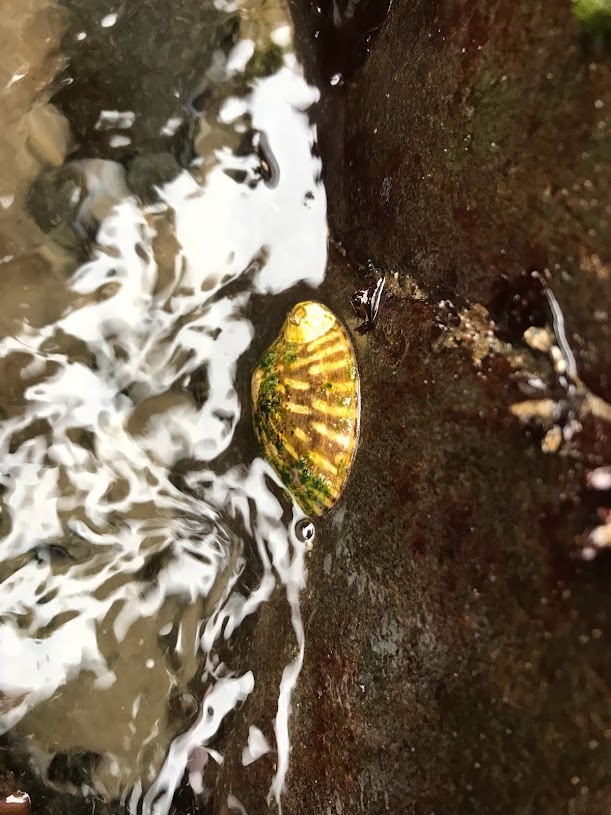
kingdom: Animalia
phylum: Mollusca
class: Gastropoda
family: Lottiidae
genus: Lottia
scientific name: Lottia scutum
